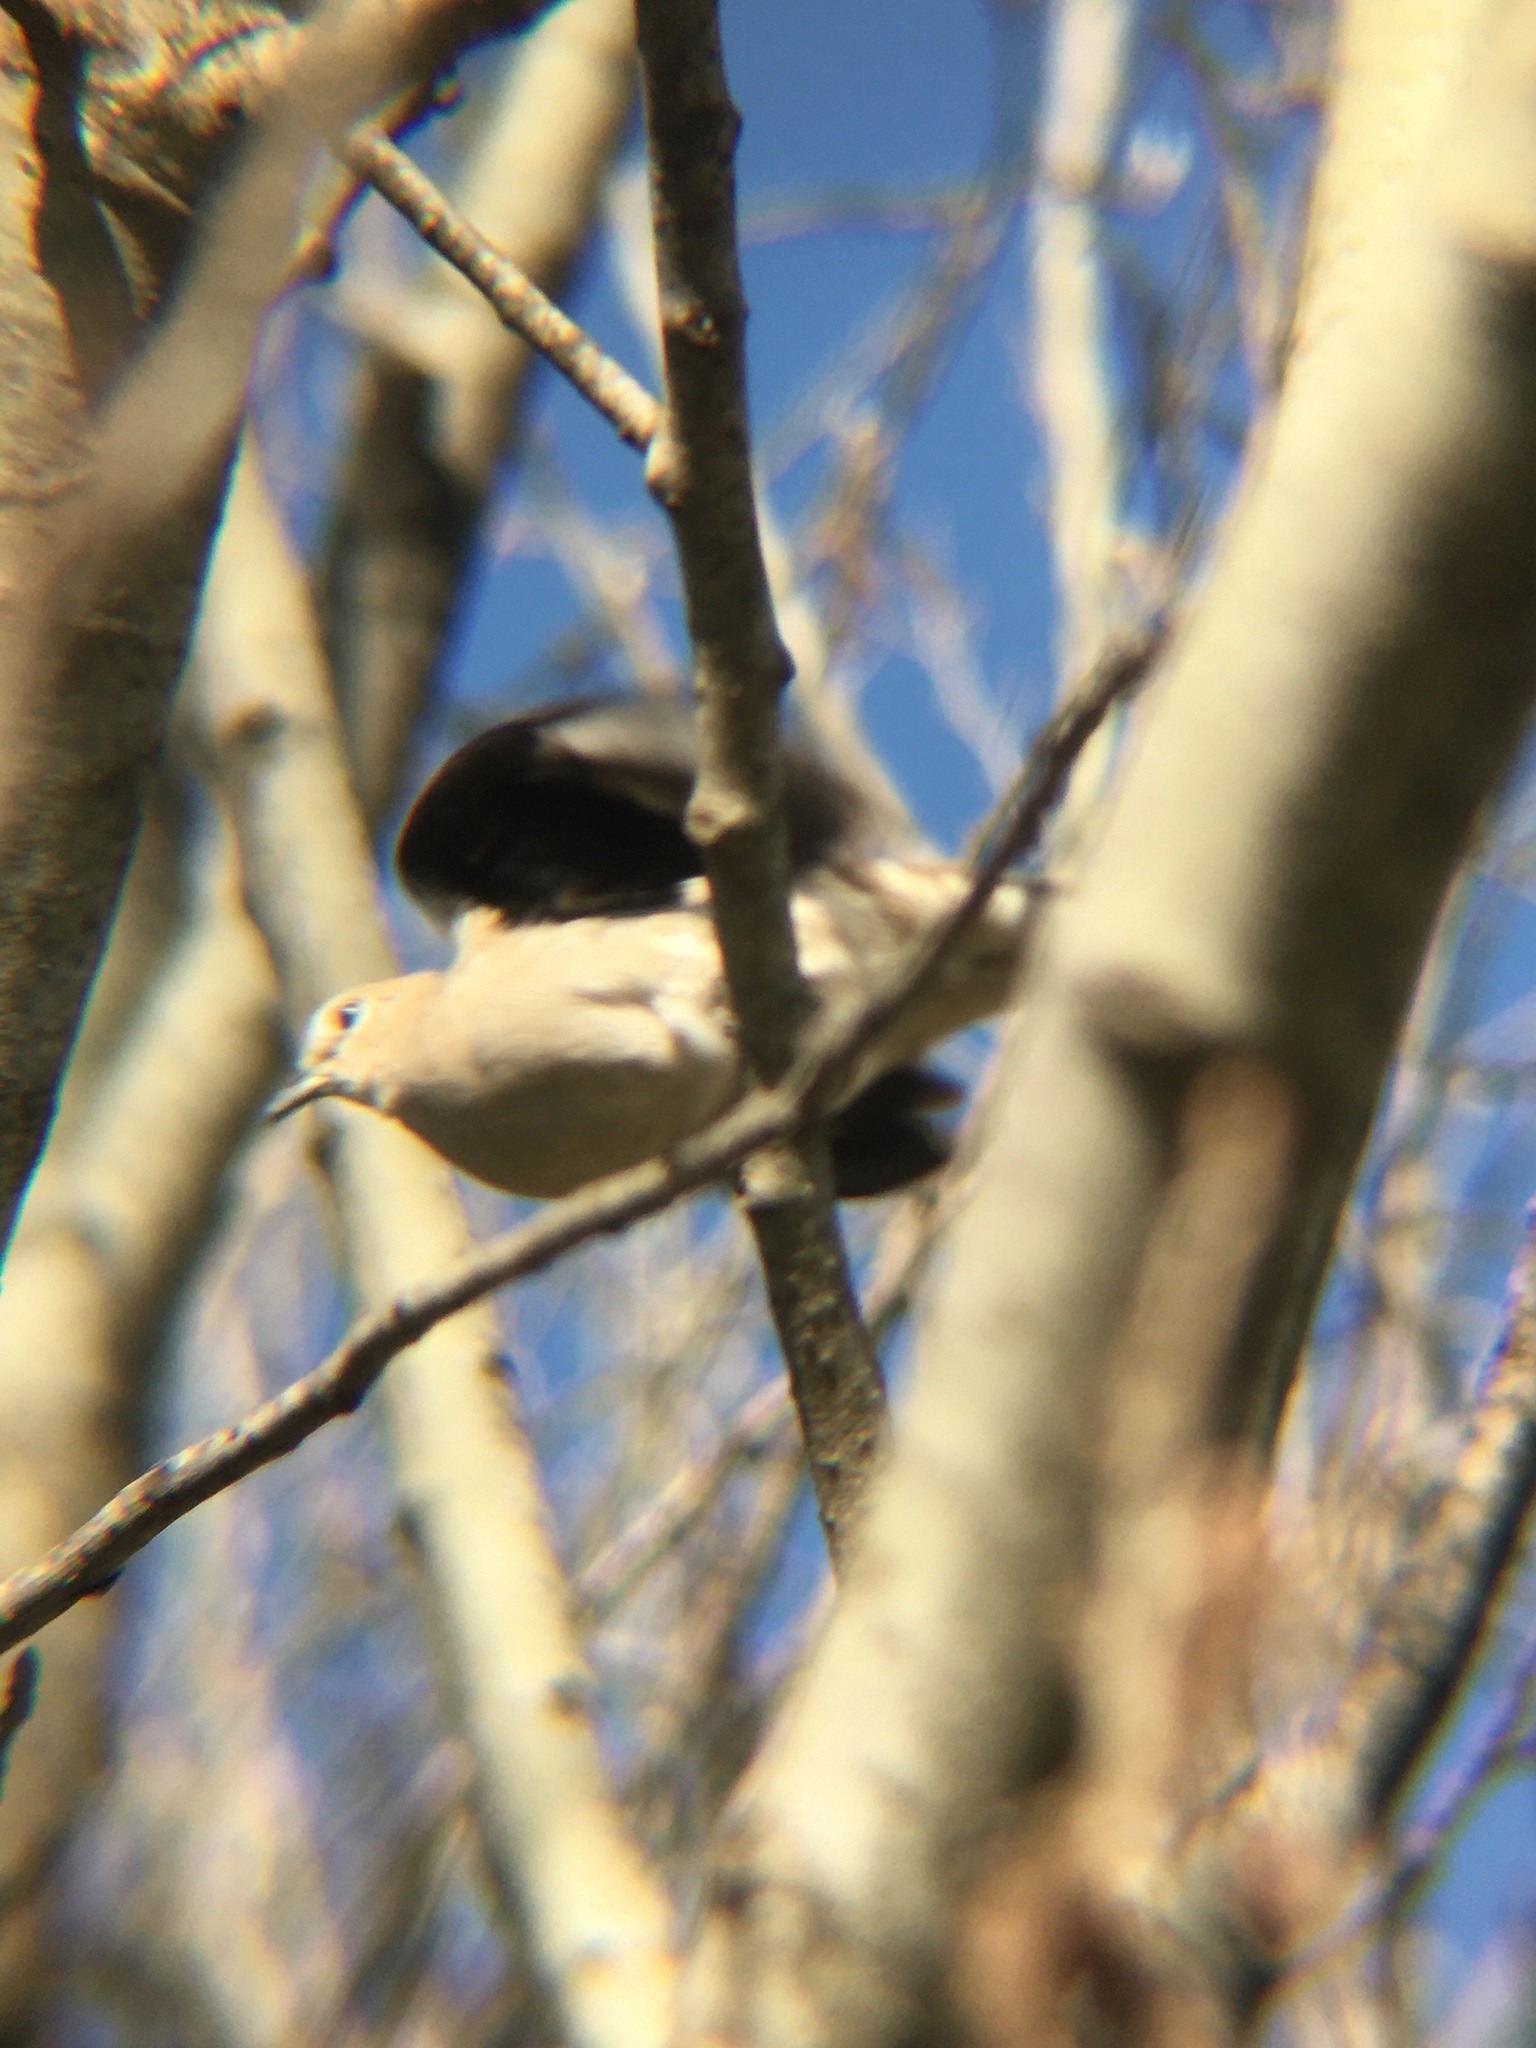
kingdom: Animalia
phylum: Chordata
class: Aves
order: Columbiformes
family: Columbidae
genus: Columbina
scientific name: Columbina picui
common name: Picui ground dove
